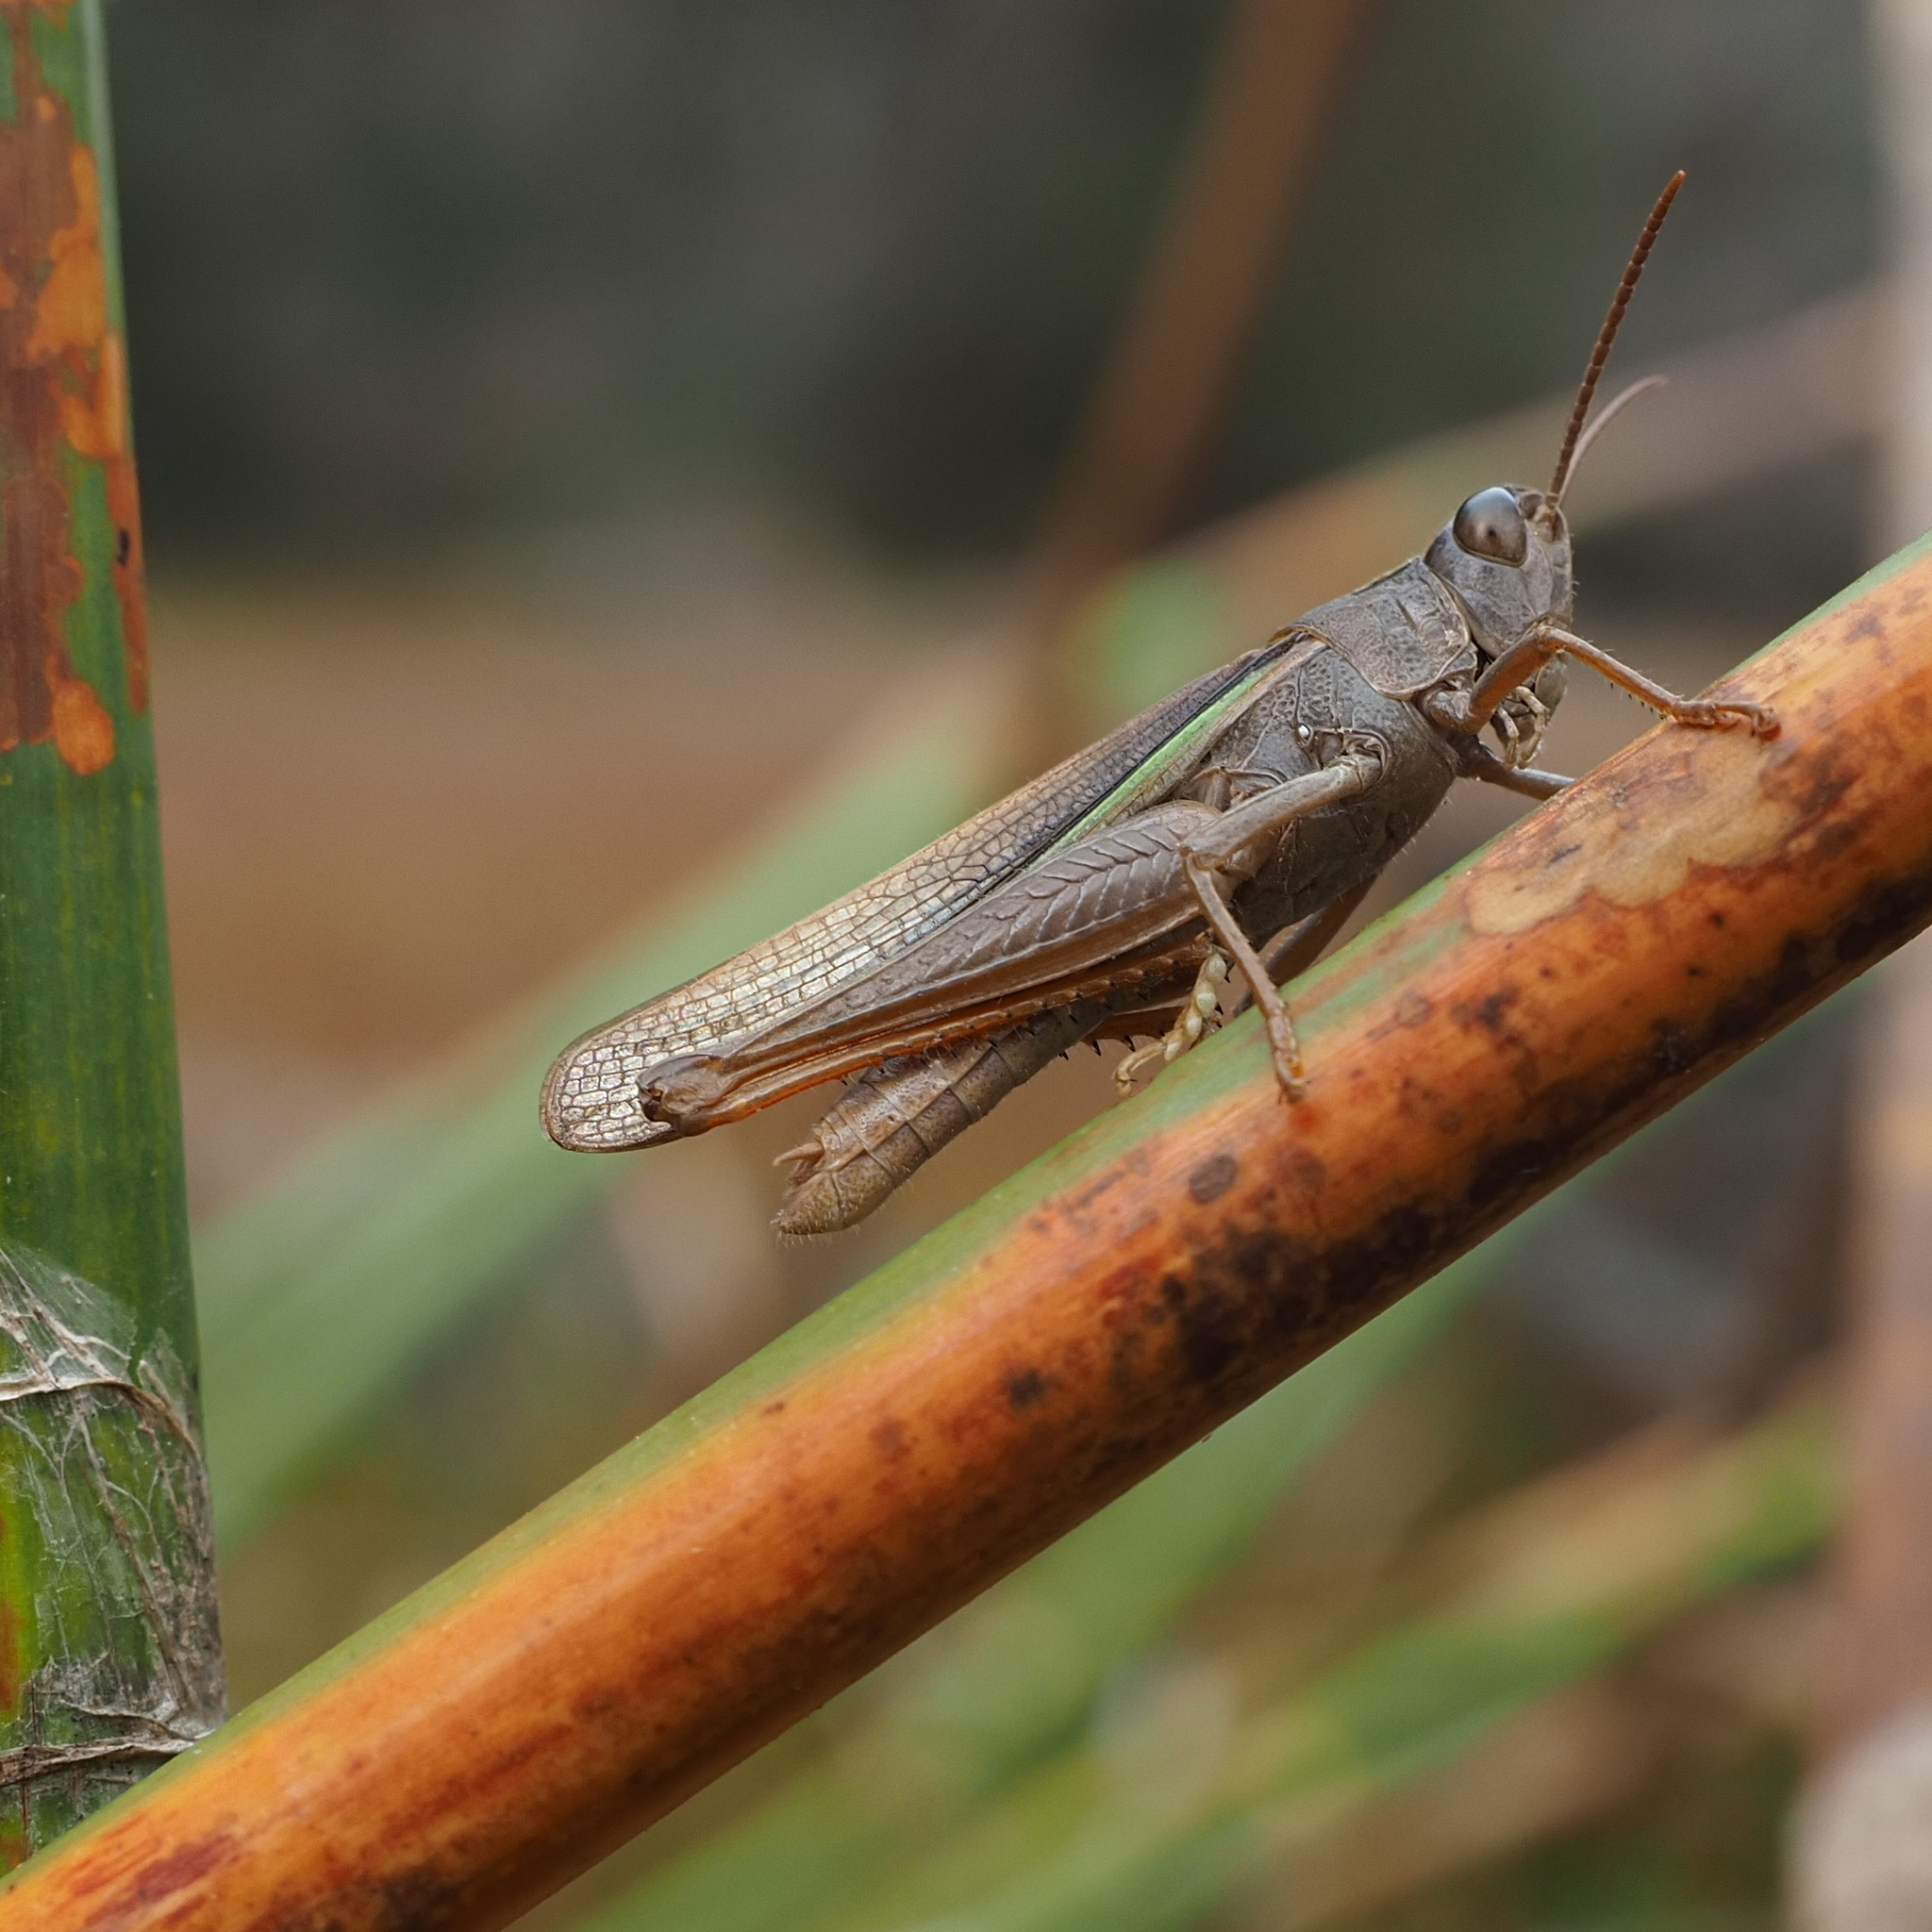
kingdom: Animalia
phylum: Arthropoda
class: Insecta
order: Orthoptera
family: Acrididae
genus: Schizobothrus
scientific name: Schizobothrus flavovittatus
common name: Disappearing grasshopper
